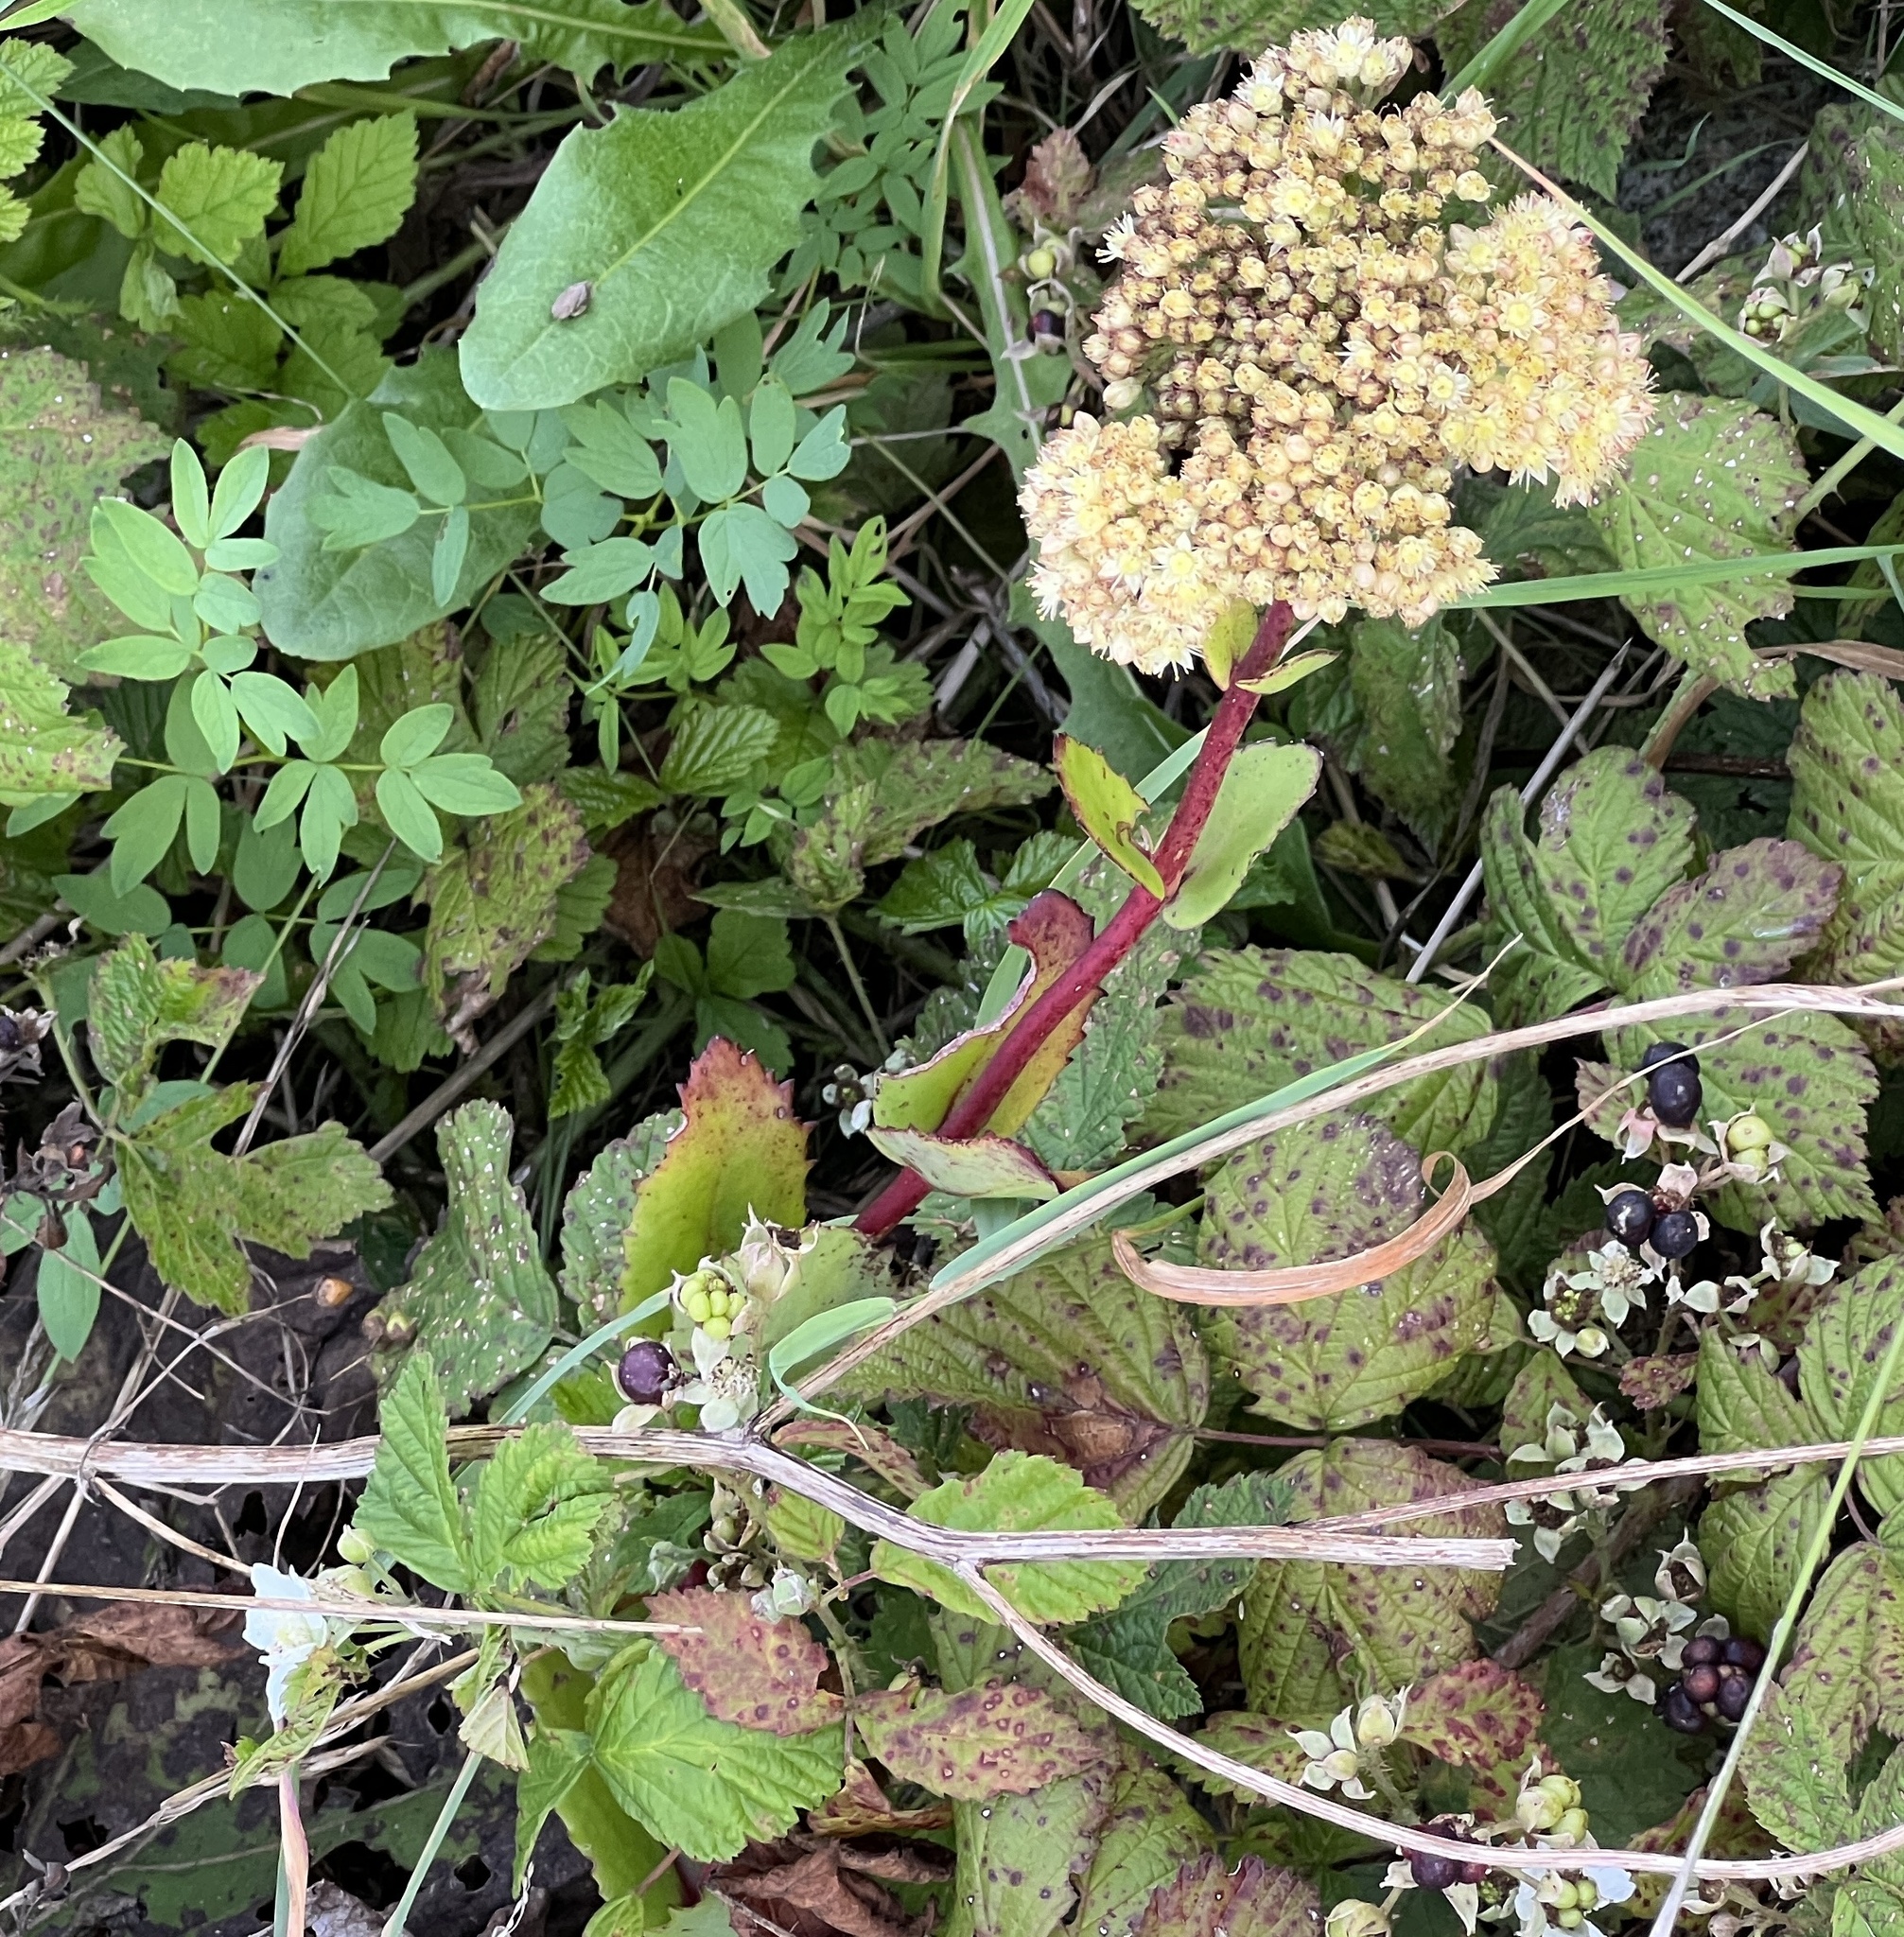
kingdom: Plantae
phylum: Tracheophyta
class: Magnoliopsida
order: Saxifragales
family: Crassulaceae
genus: Hylotelephium
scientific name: Hylotelephium maximum
